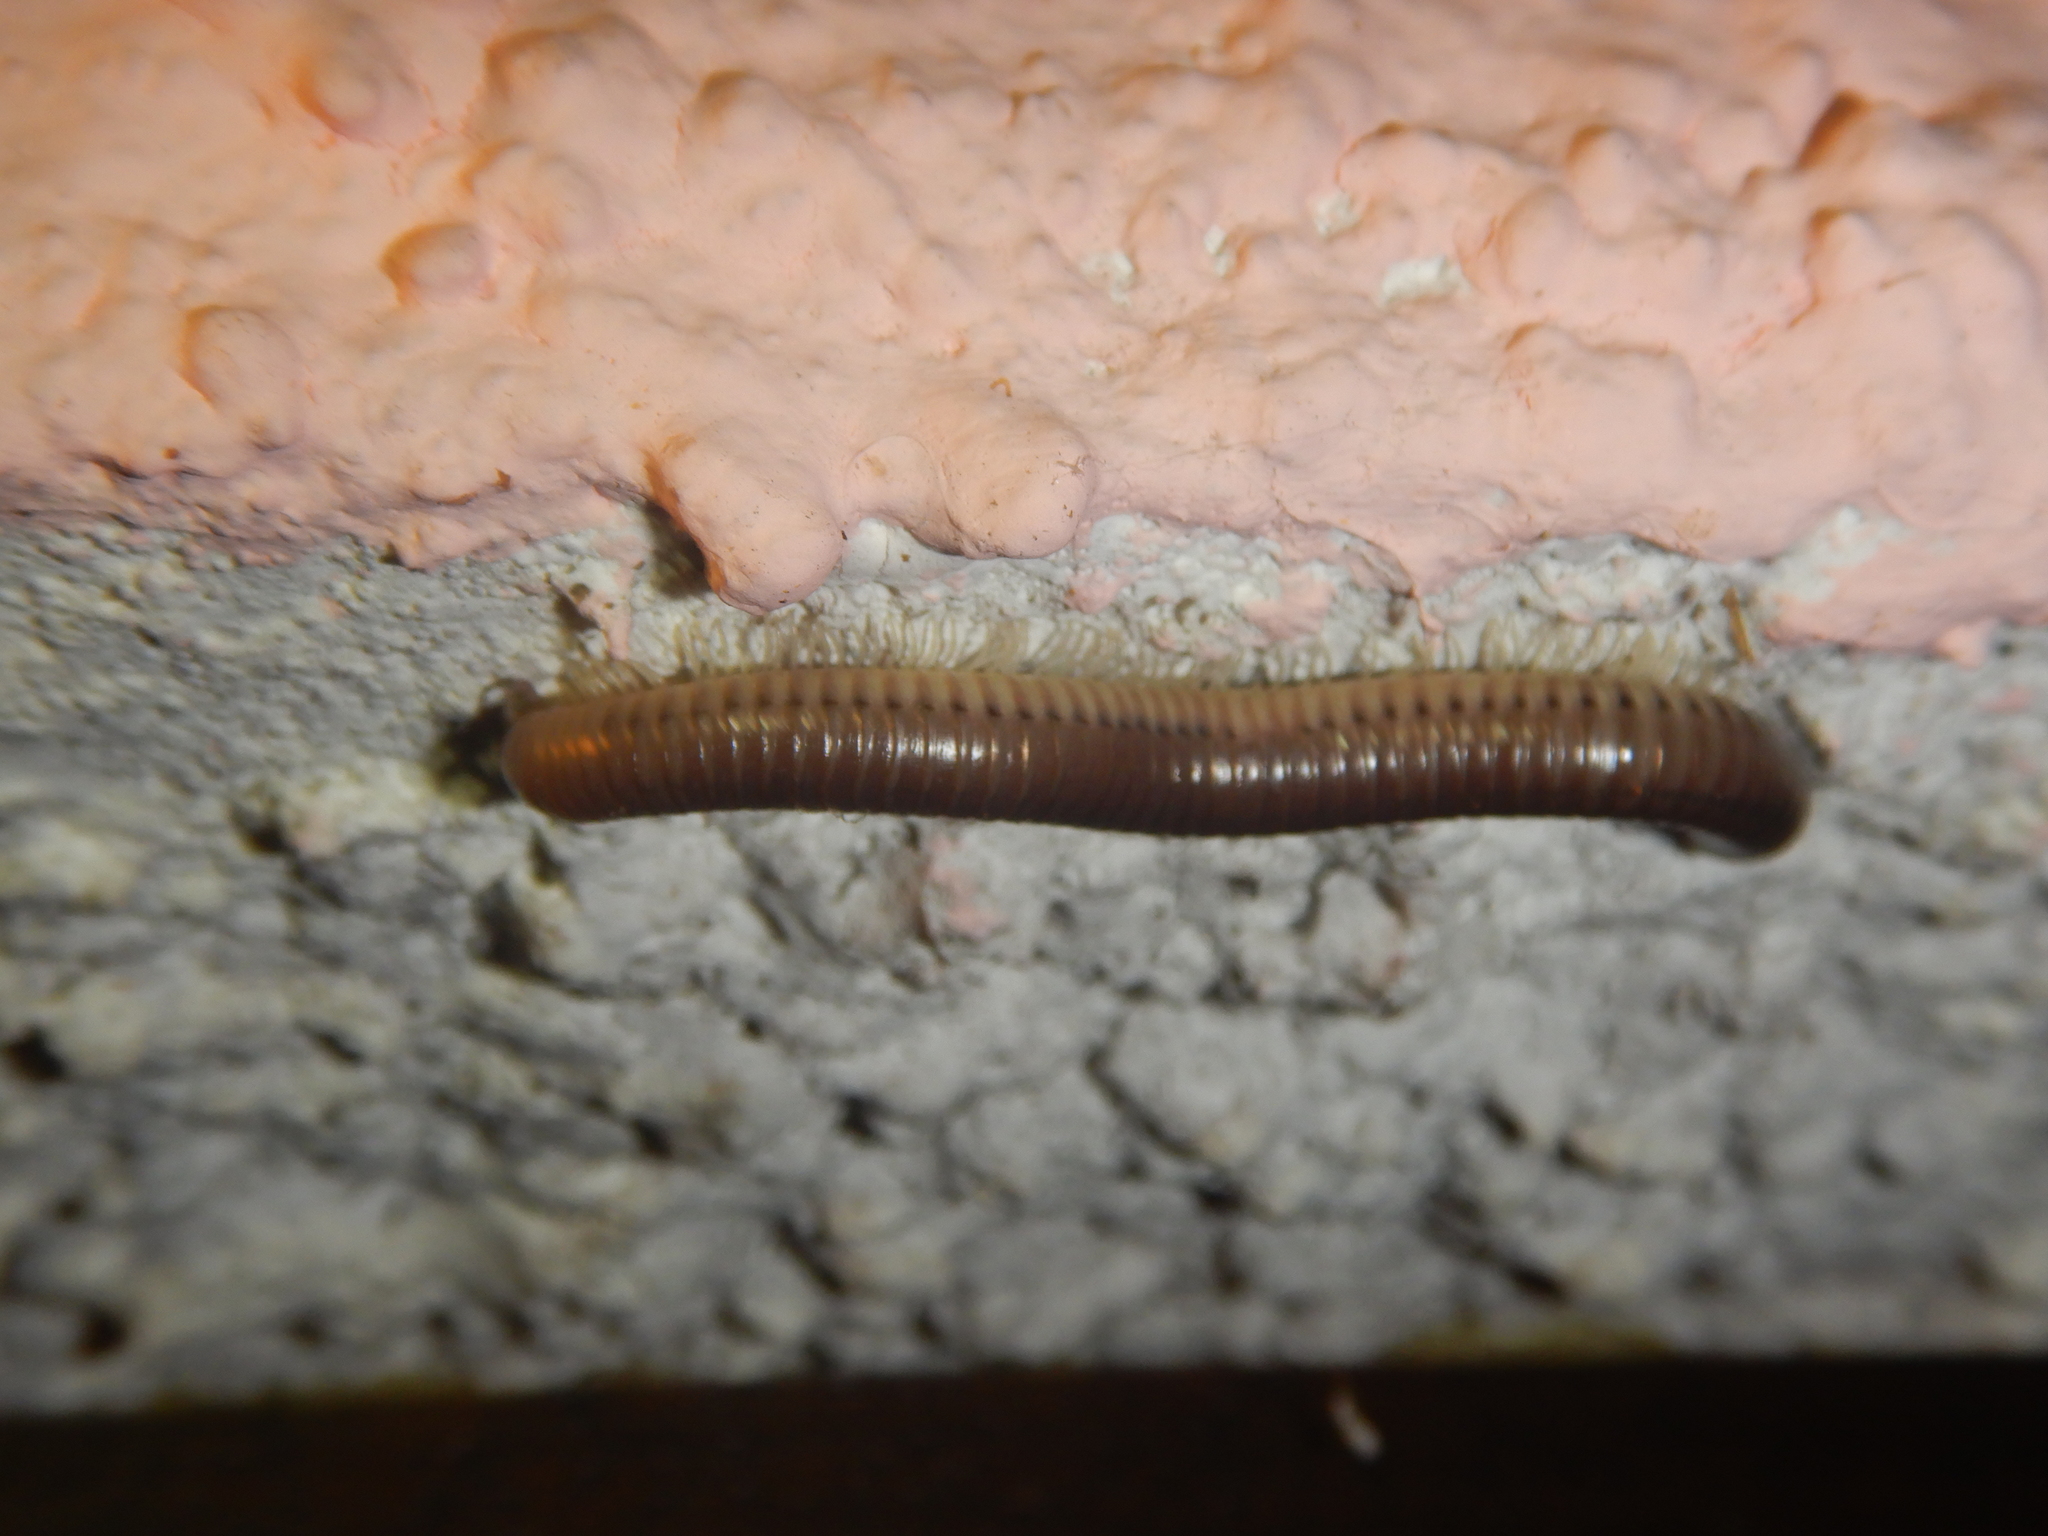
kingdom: Animalia
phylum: Arthropoda
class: Diplopoda
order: Julida
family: Julidae
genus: Pachyiulus
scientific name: Pachyiulus flavipes
